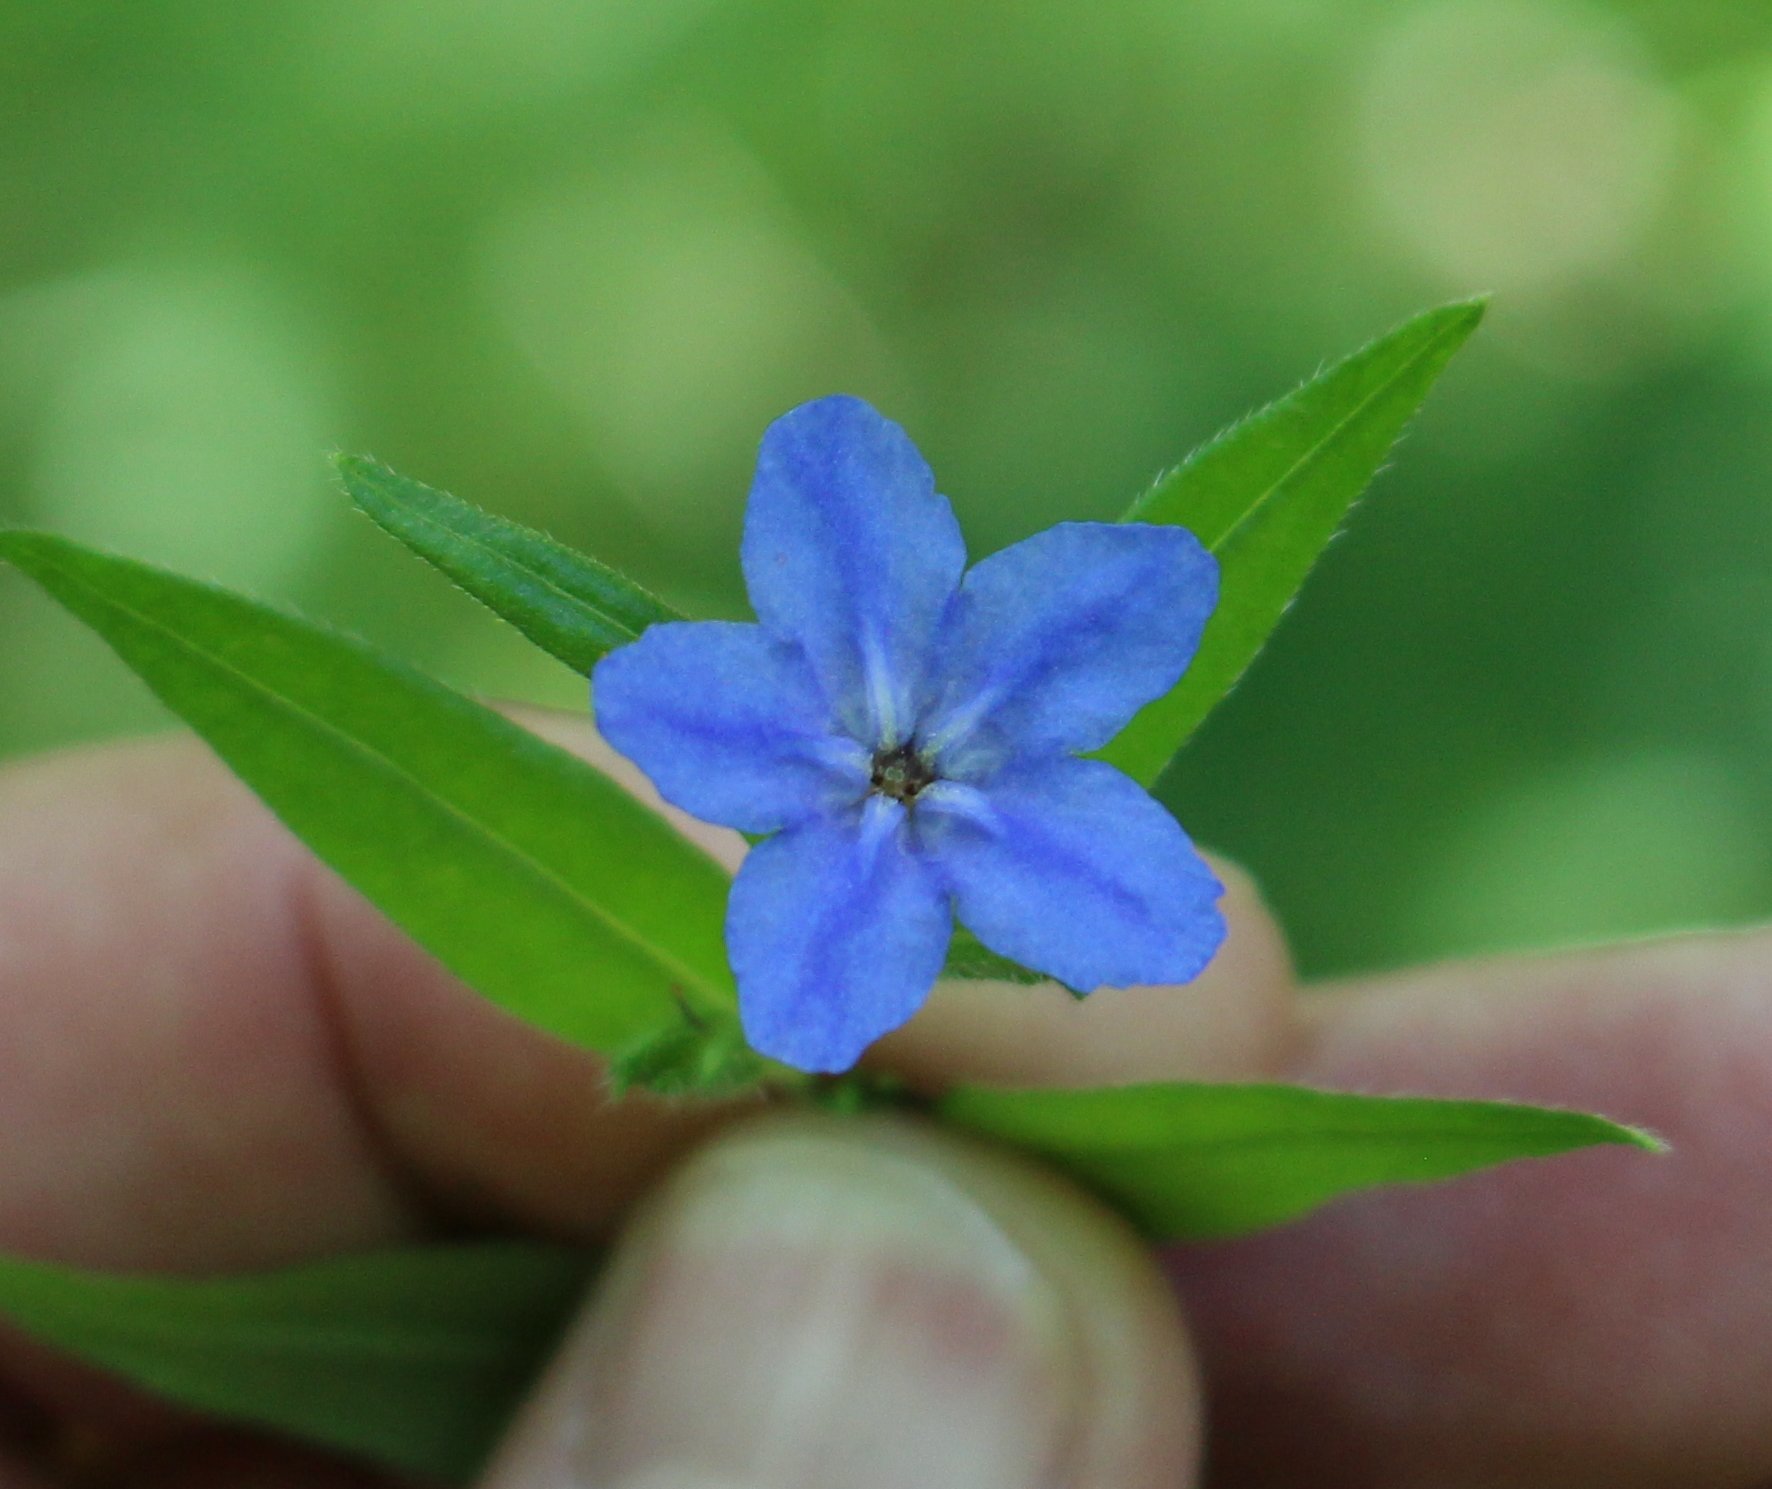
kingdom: Plantae
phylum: Tracheophyta
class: Magnoliopsida
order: Boraginales
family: Boraginaceae
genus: Aegonychon
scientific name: Aegonychon purpurocaeruleum
